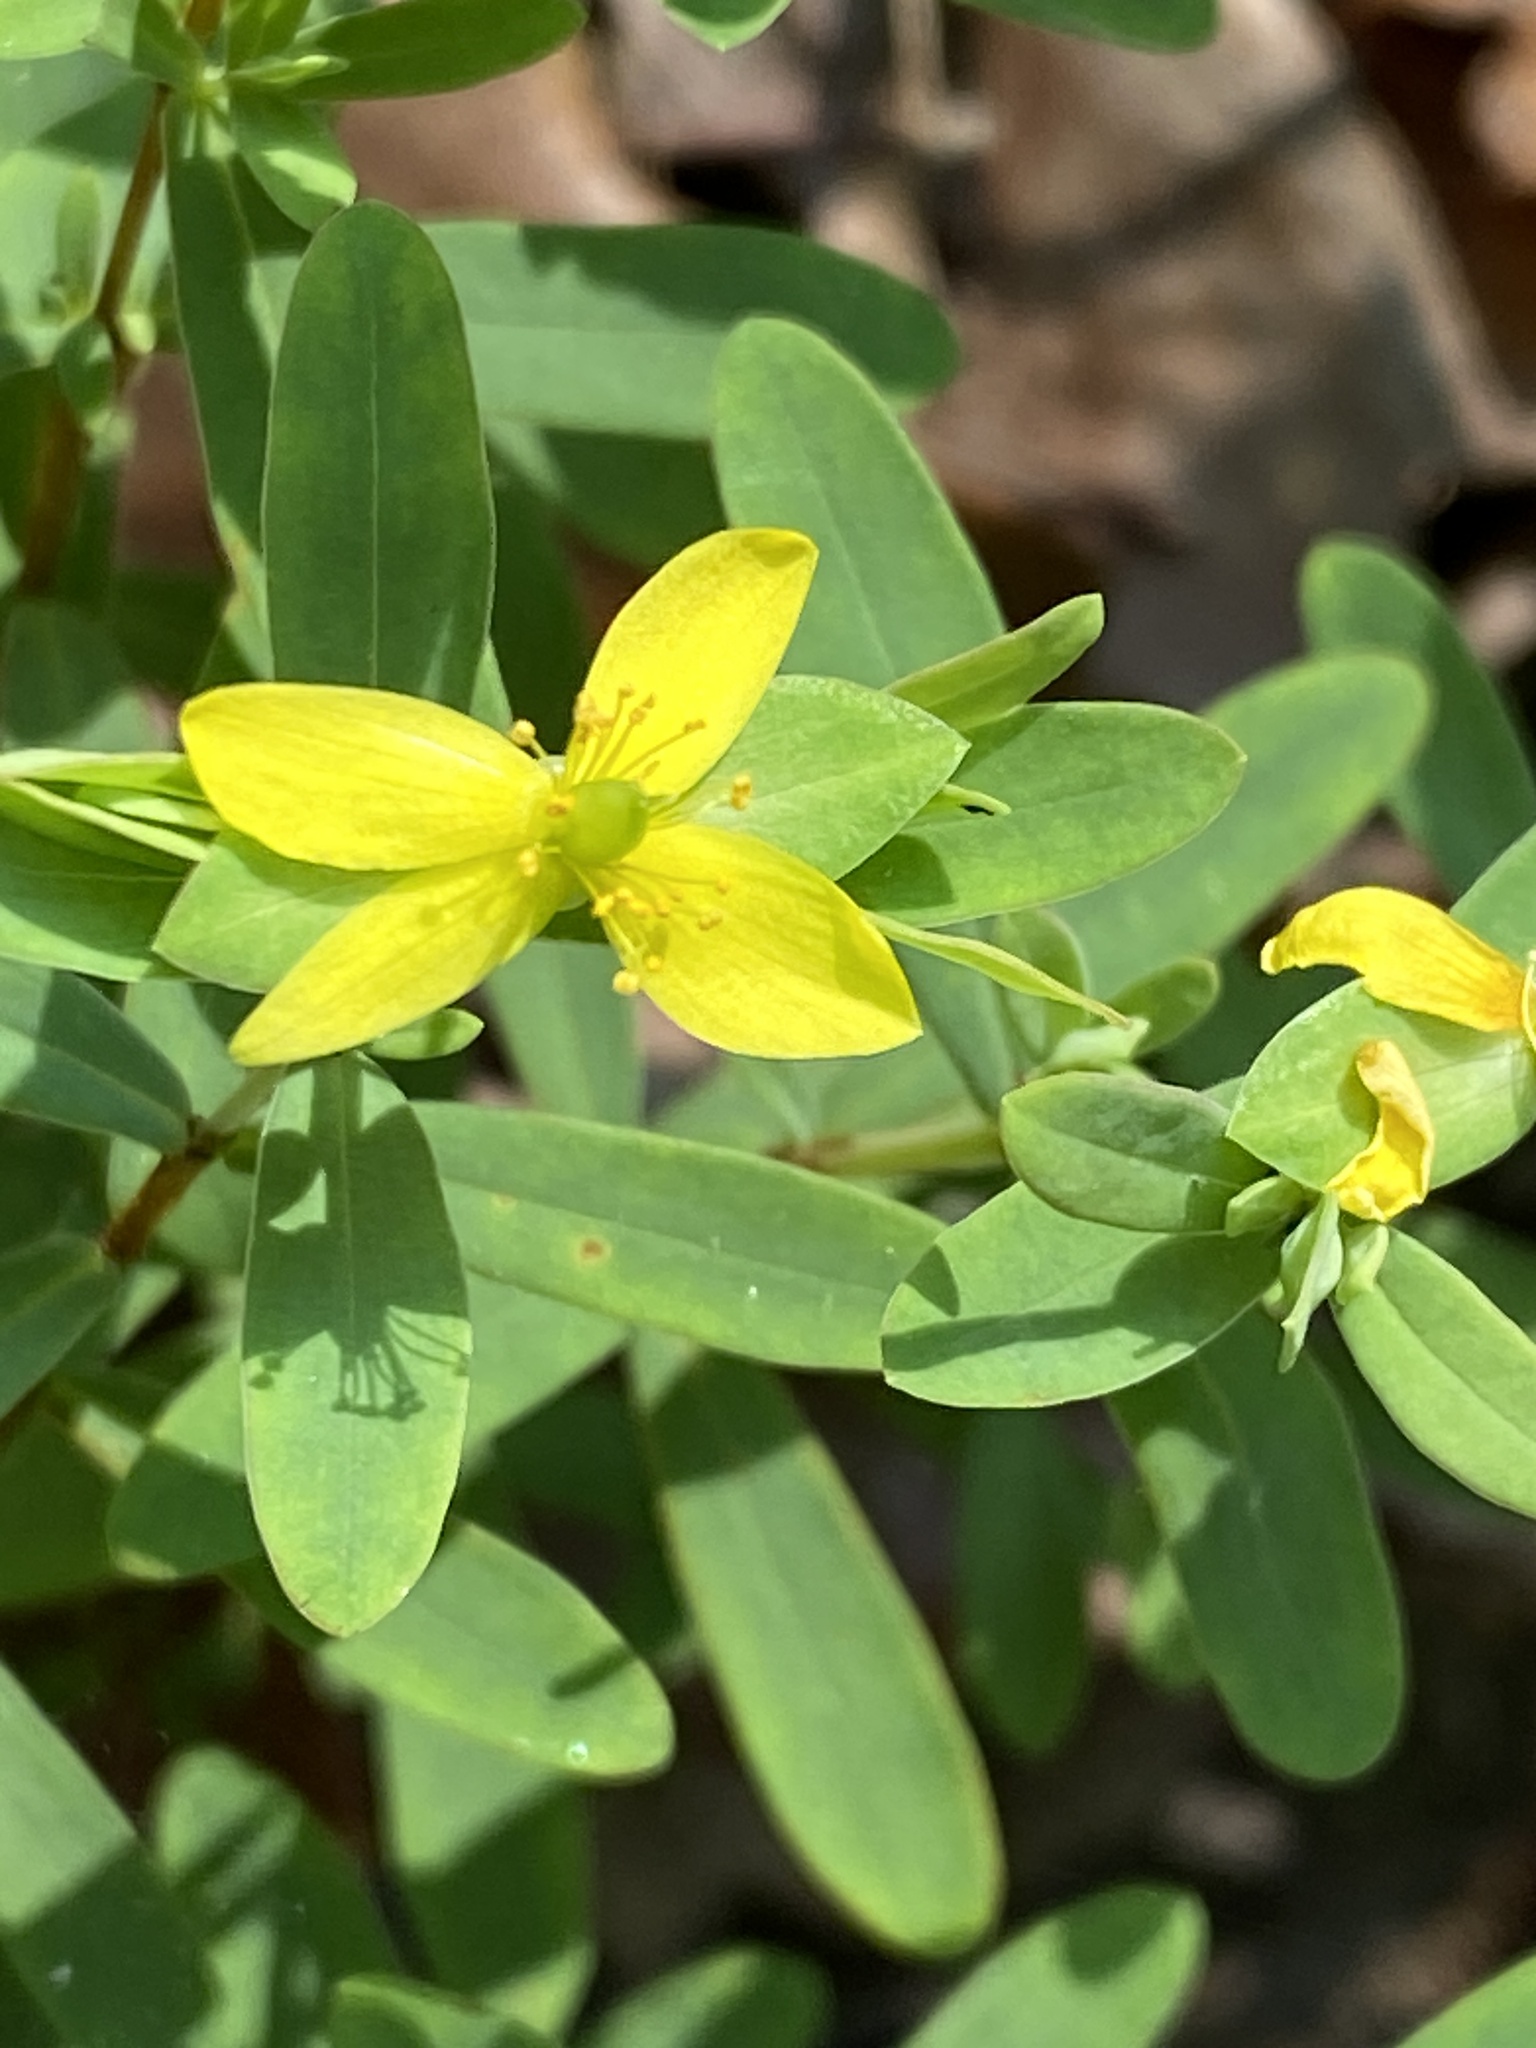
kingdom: Plantae
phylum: Tracheophyta
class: Magnoliopsida
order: Malpighiales
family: Hypericaceae
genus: Hypericum
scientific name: Hypericum hypericoides
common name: St. andrew's cross
